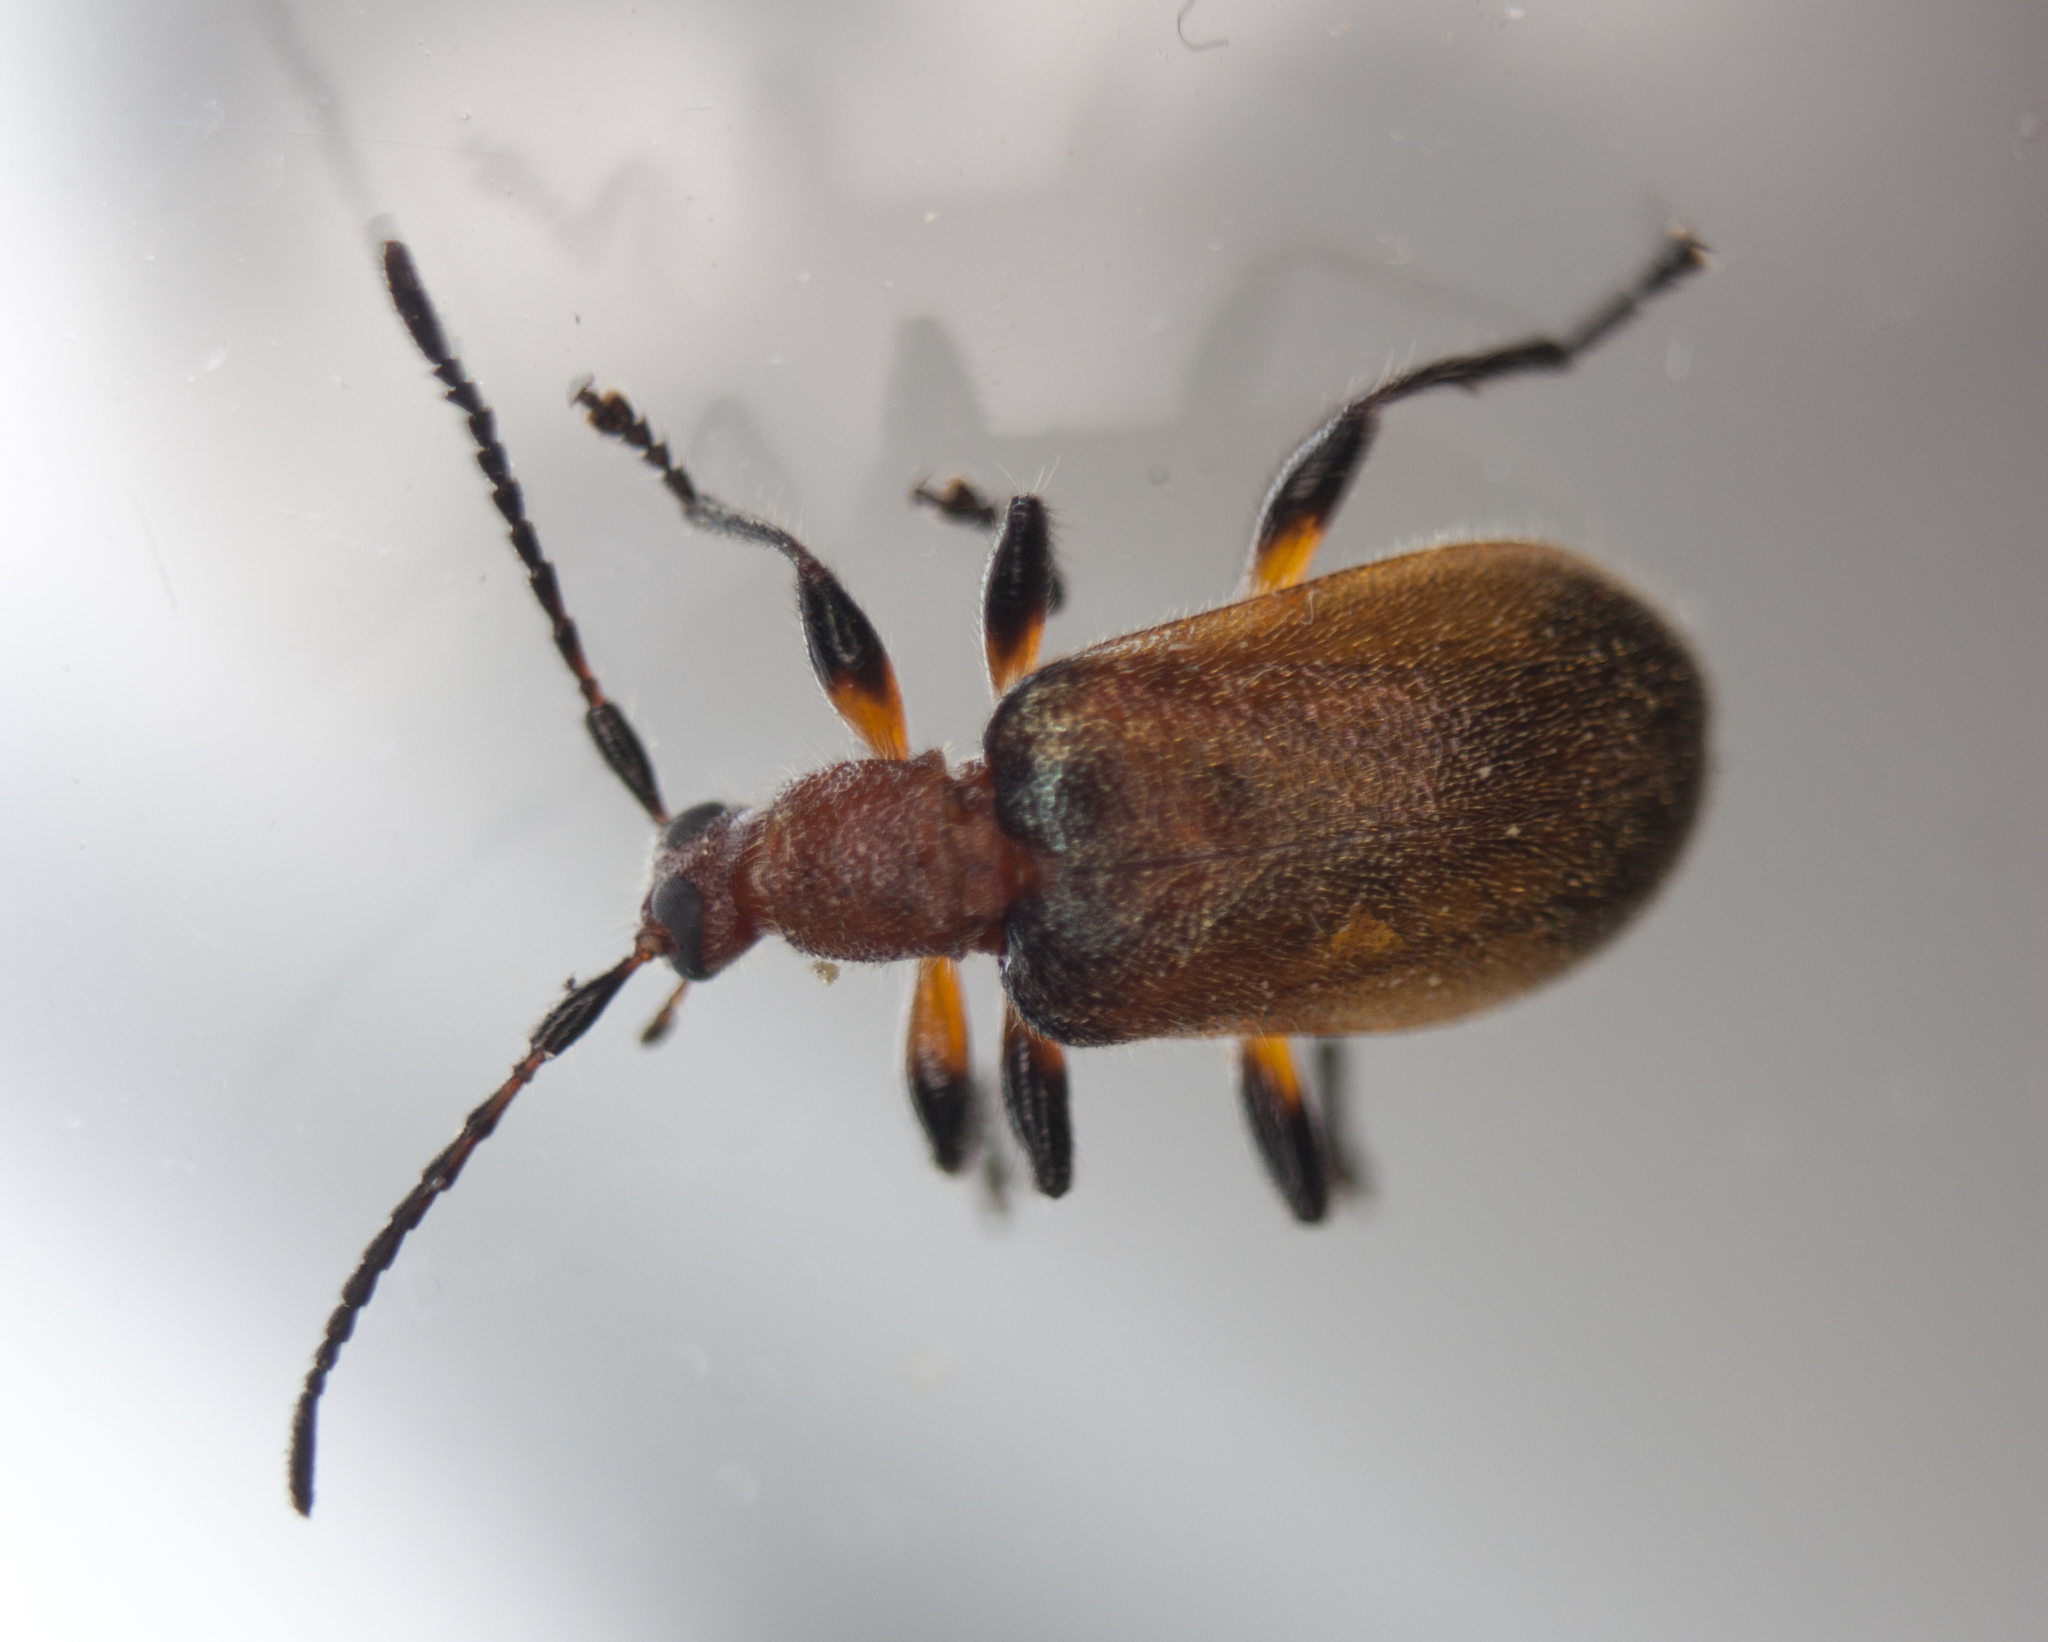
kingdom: Animalia
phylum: Arthropoda
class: Insecta
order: Coleoptera
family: Tenebrionidae
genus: Ecnolagria
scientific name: Ecnolagria
